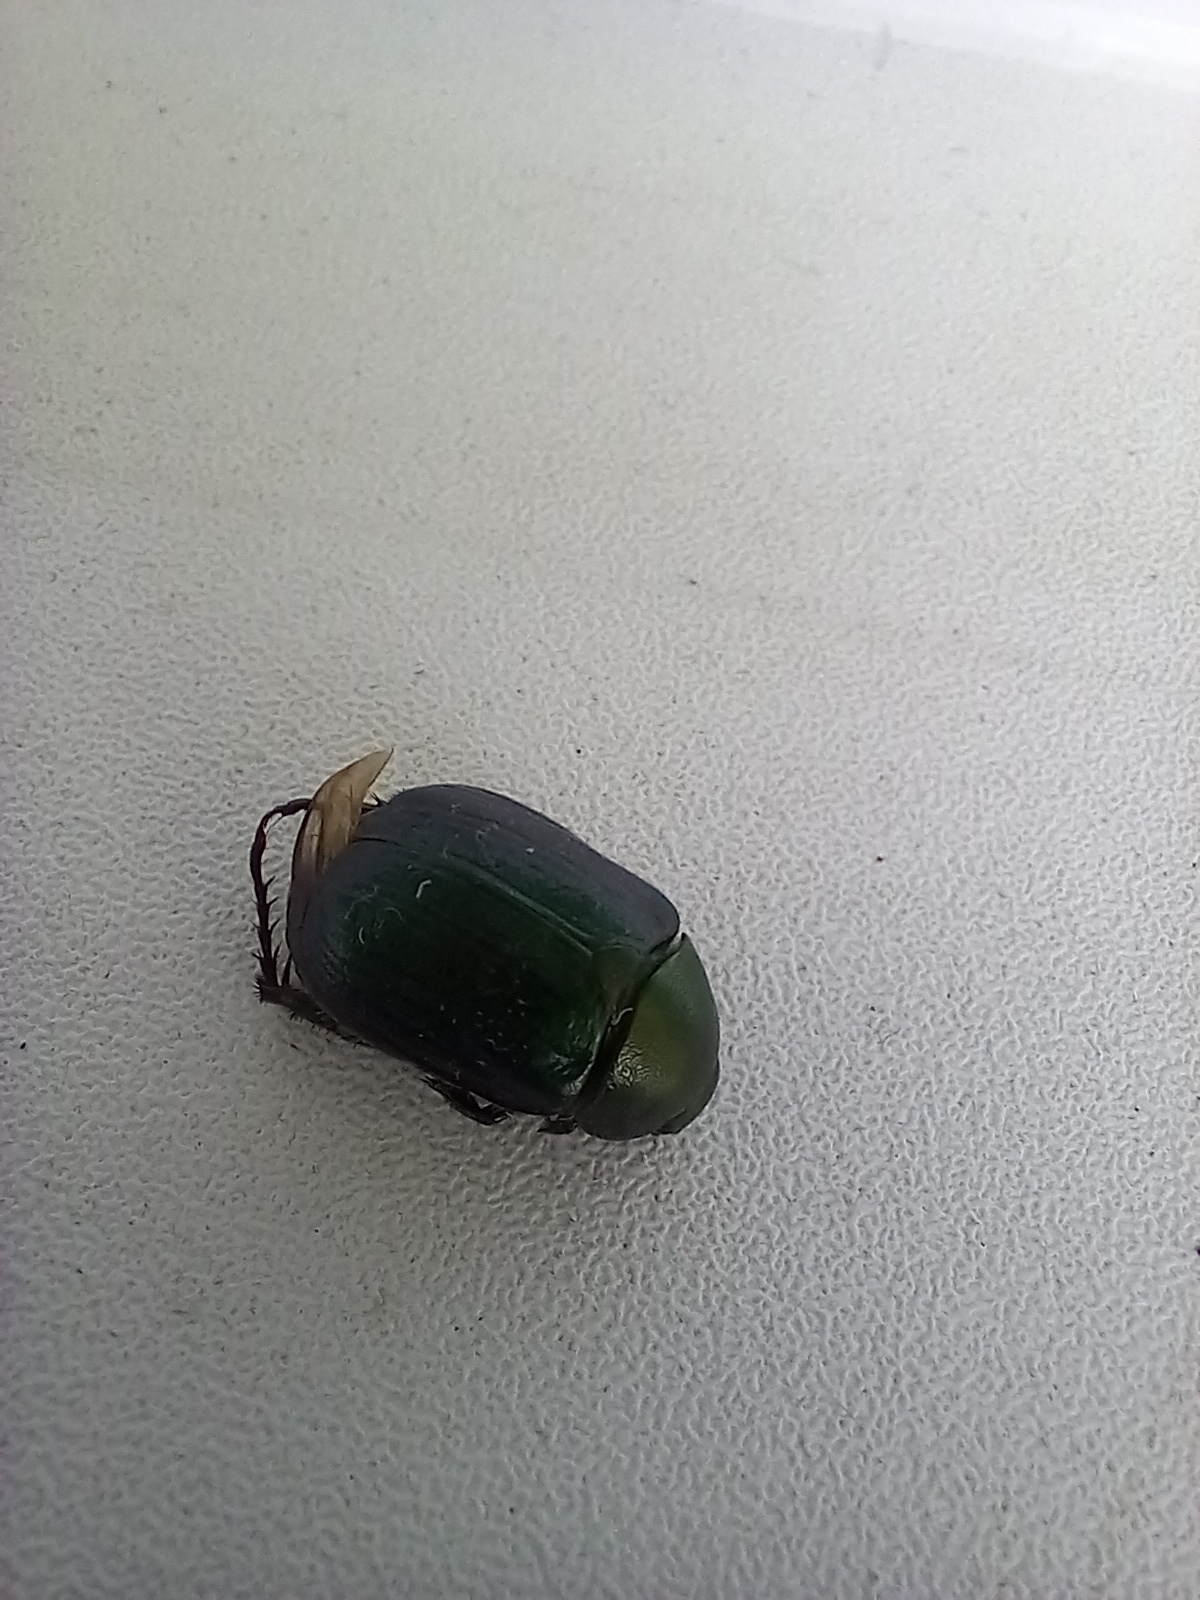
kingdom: Animalia
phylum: Arthropoda
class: Insecta
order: Coleoptera
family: Scarabaeidae
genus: Anomala
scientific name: Anomala dubia
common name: Dune chafer
